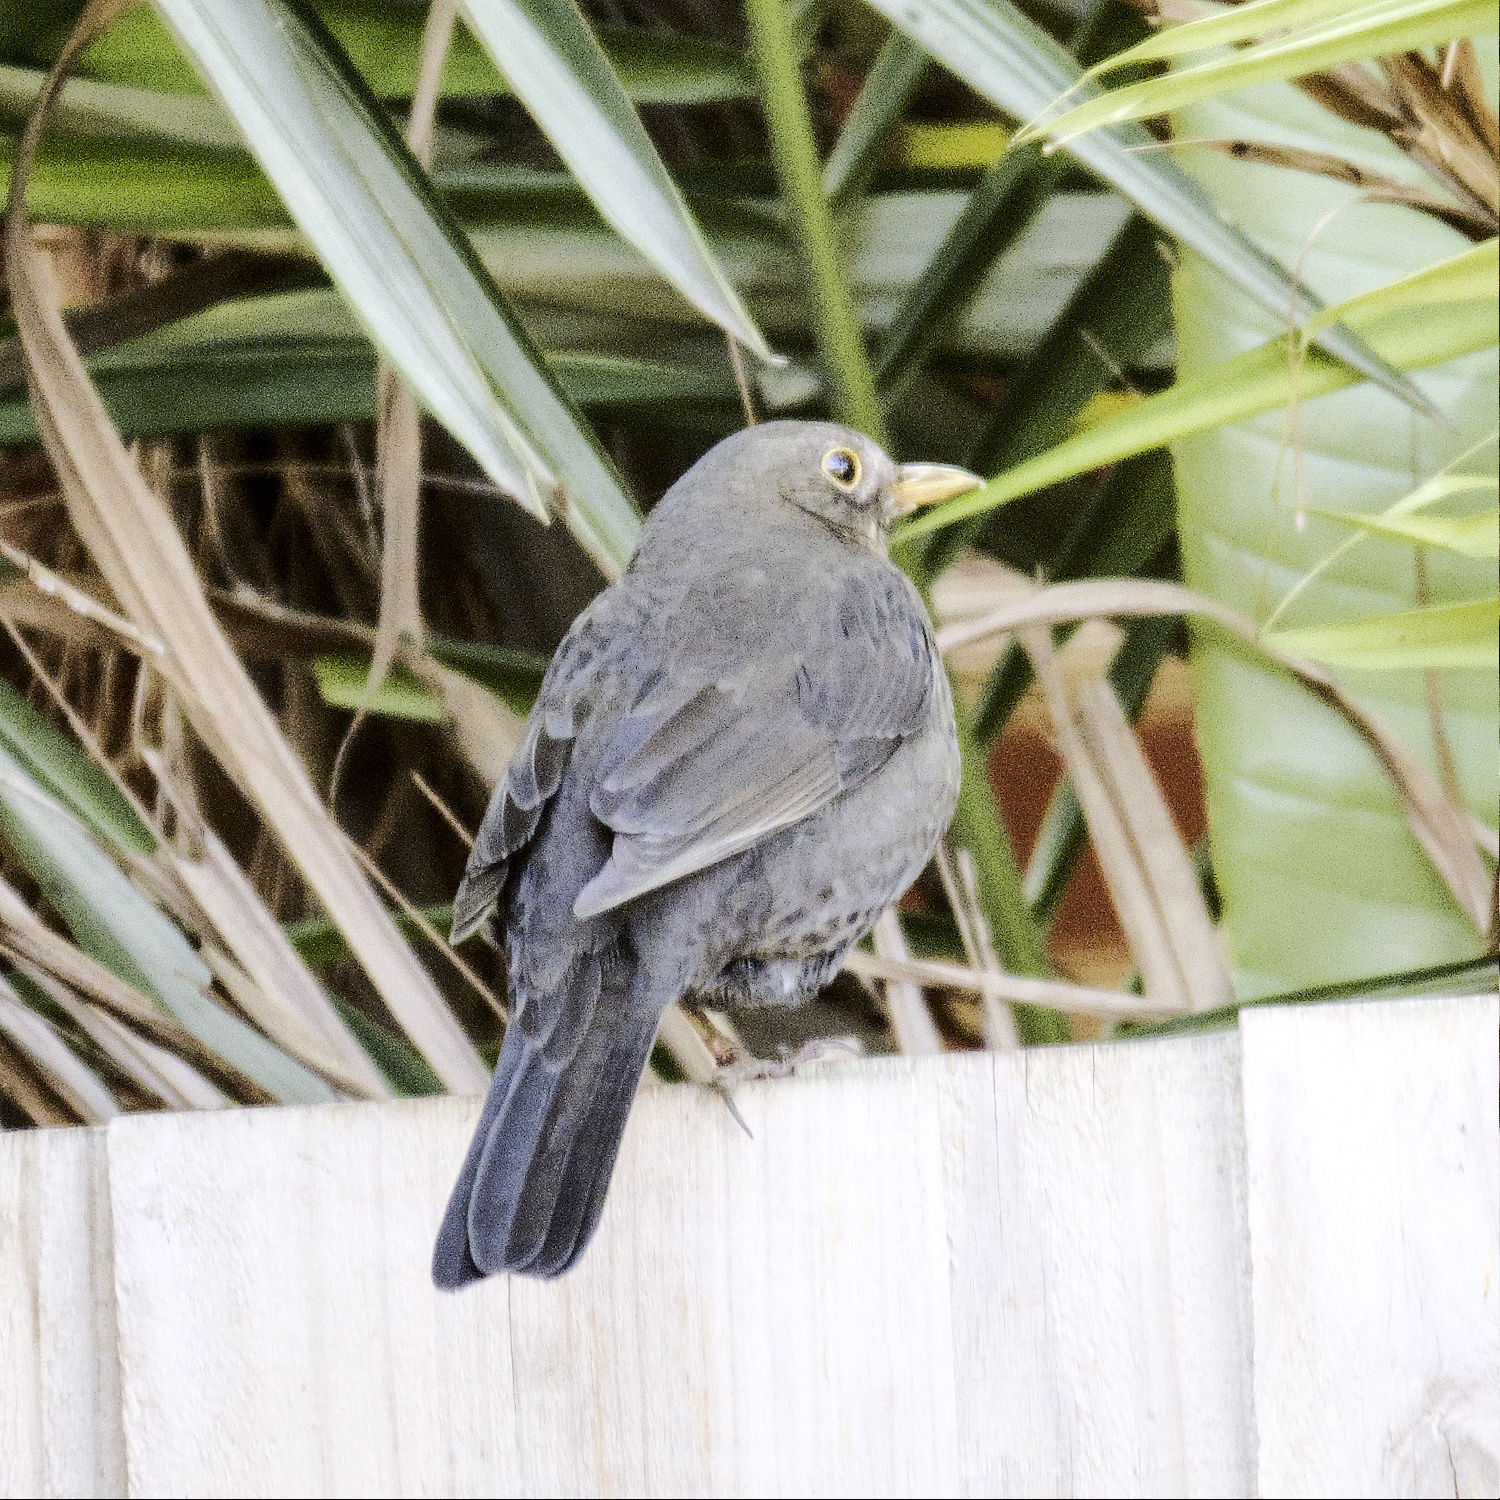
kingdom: Animalia
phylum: Chordata
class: Aves
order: Passeriformes
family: Turdidae
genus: Turdus
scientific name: Turdus merula
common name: Common blackbird
